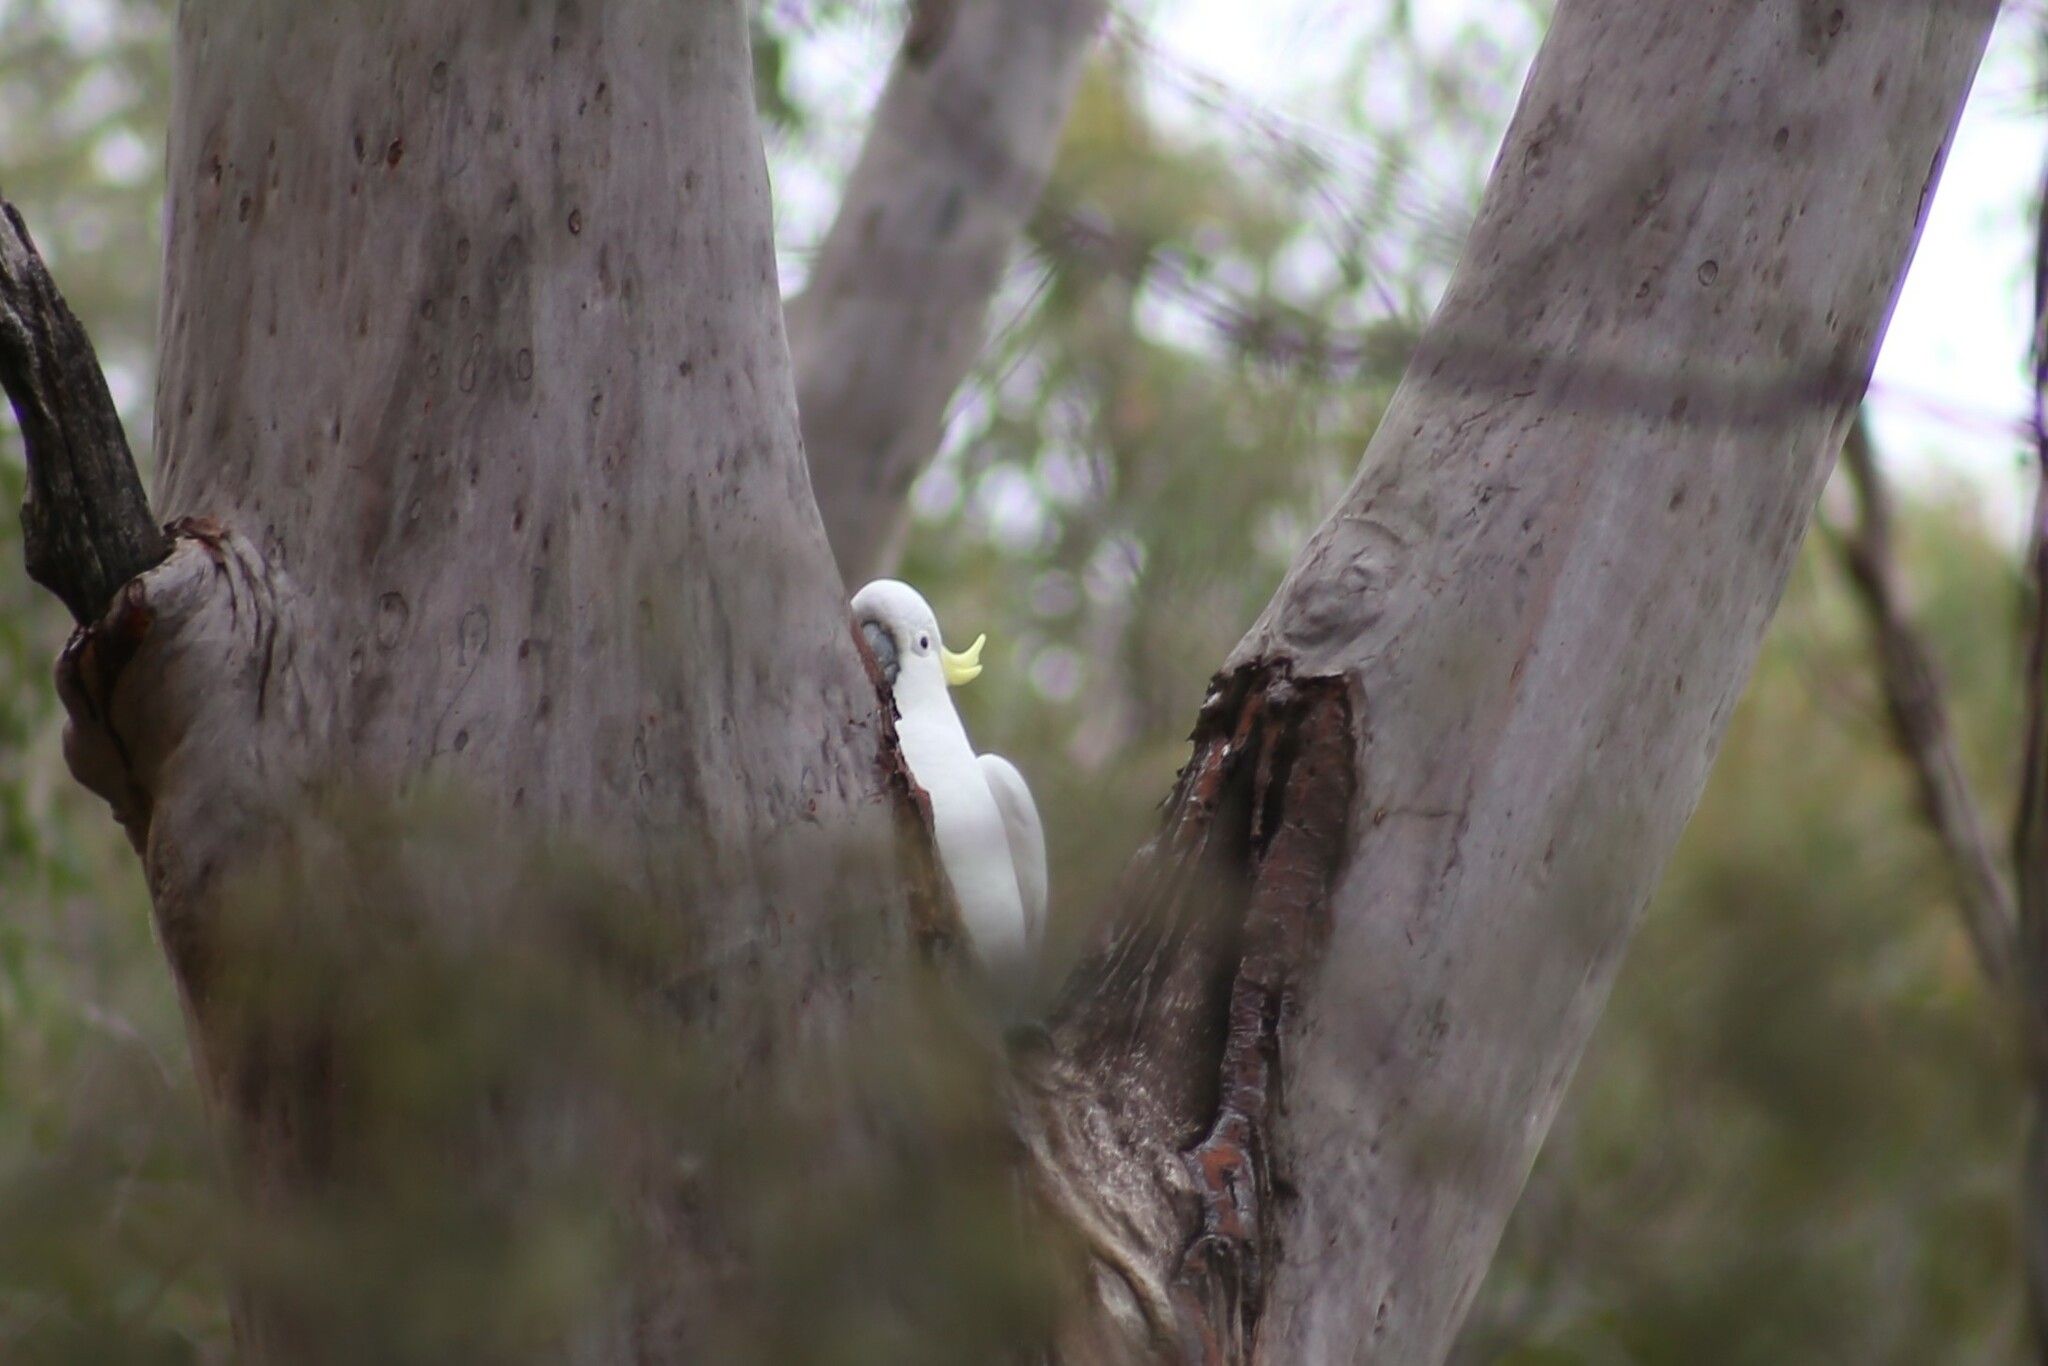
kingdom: Animalia
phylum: Chordata
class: Aves
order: Psittaciformes
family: Psittacidae
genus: Cacatua
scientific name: Cacatua galerita
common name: Sulphur-crested cockatoo
